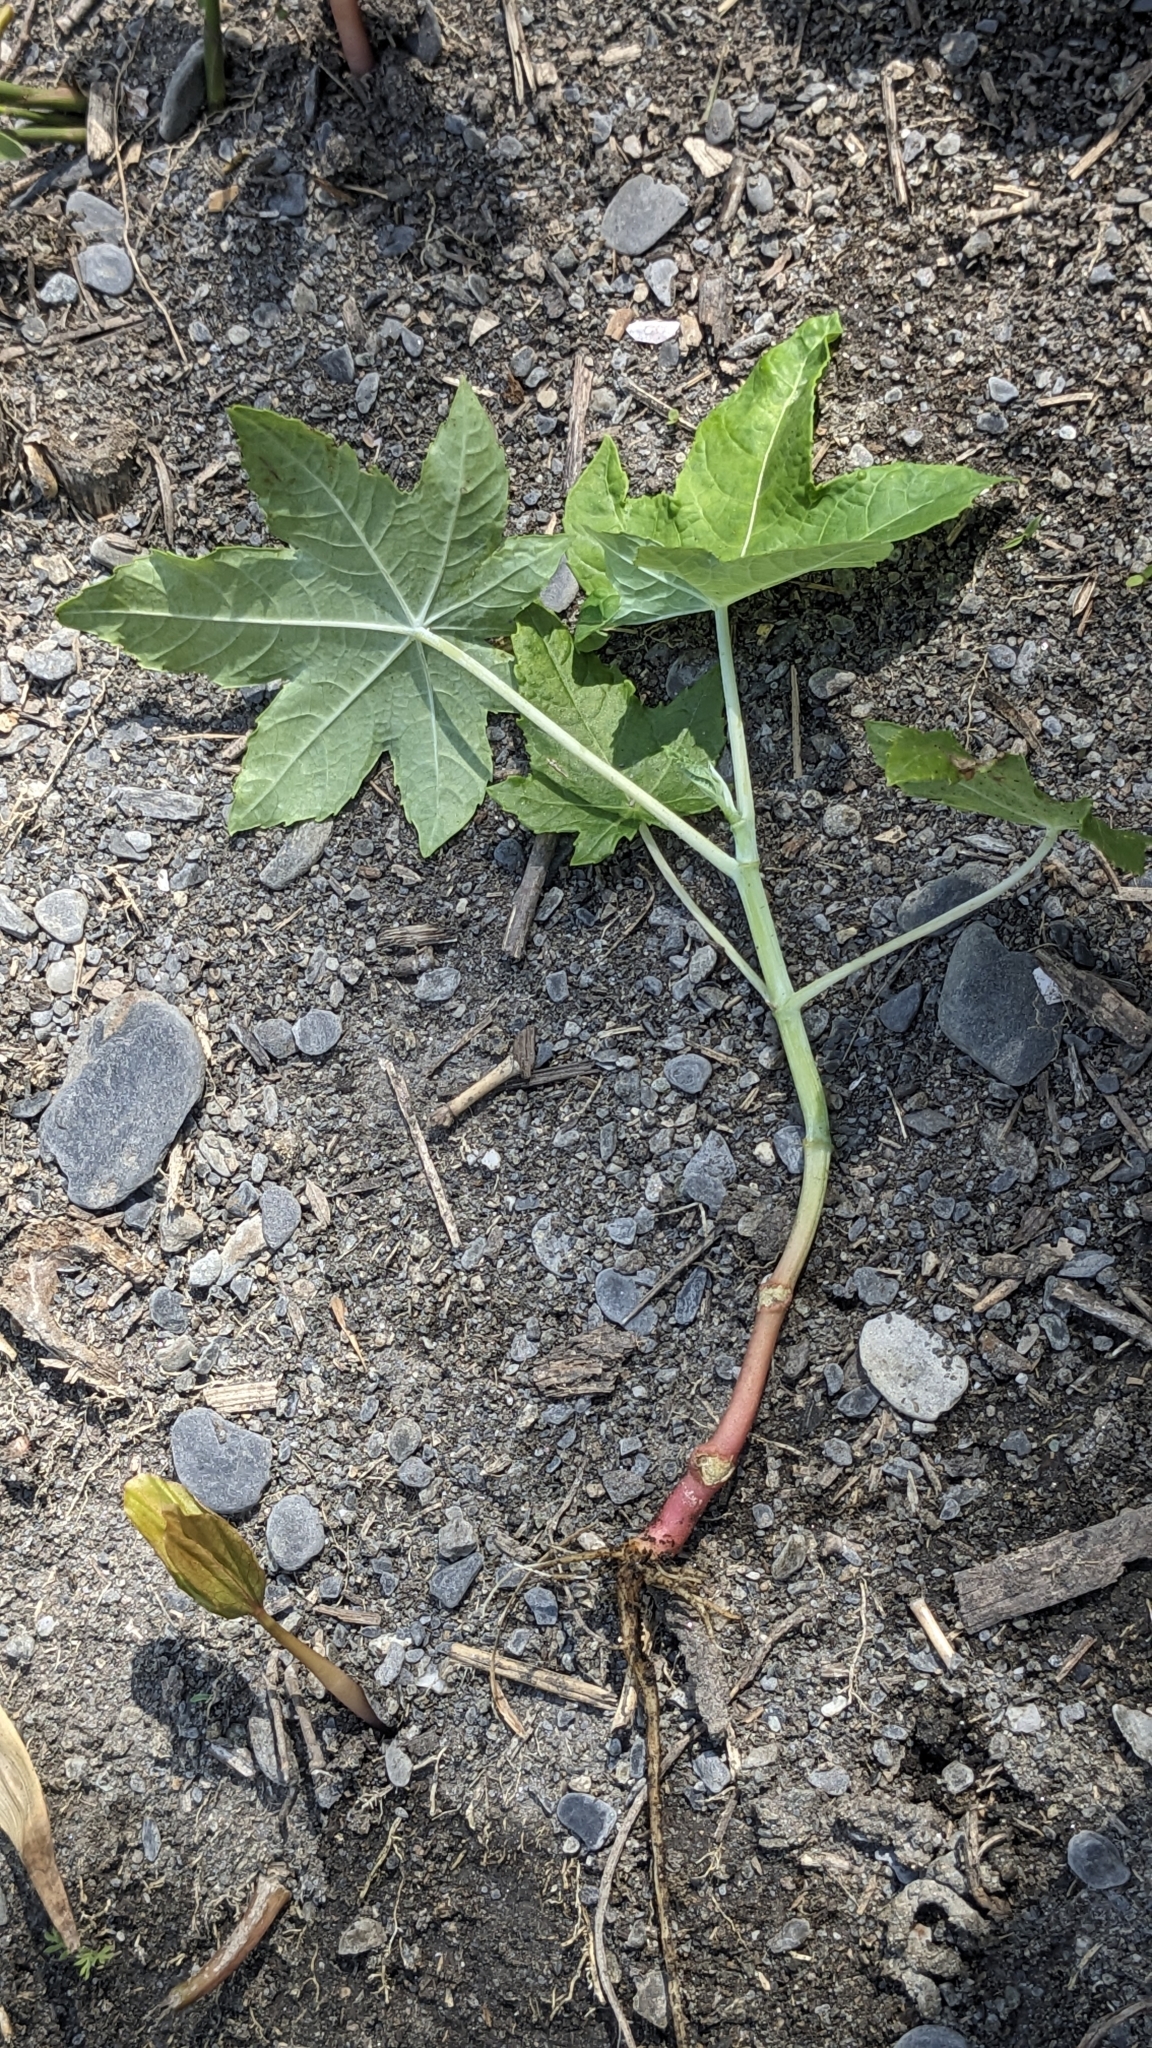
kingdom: Plantae
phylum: Tracheophyta
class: Magnoliopsida
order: Malpighiales
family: Euphorbiaceae
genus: Ricinus
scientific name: Ricinus communis
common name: Castor-oil-plant
